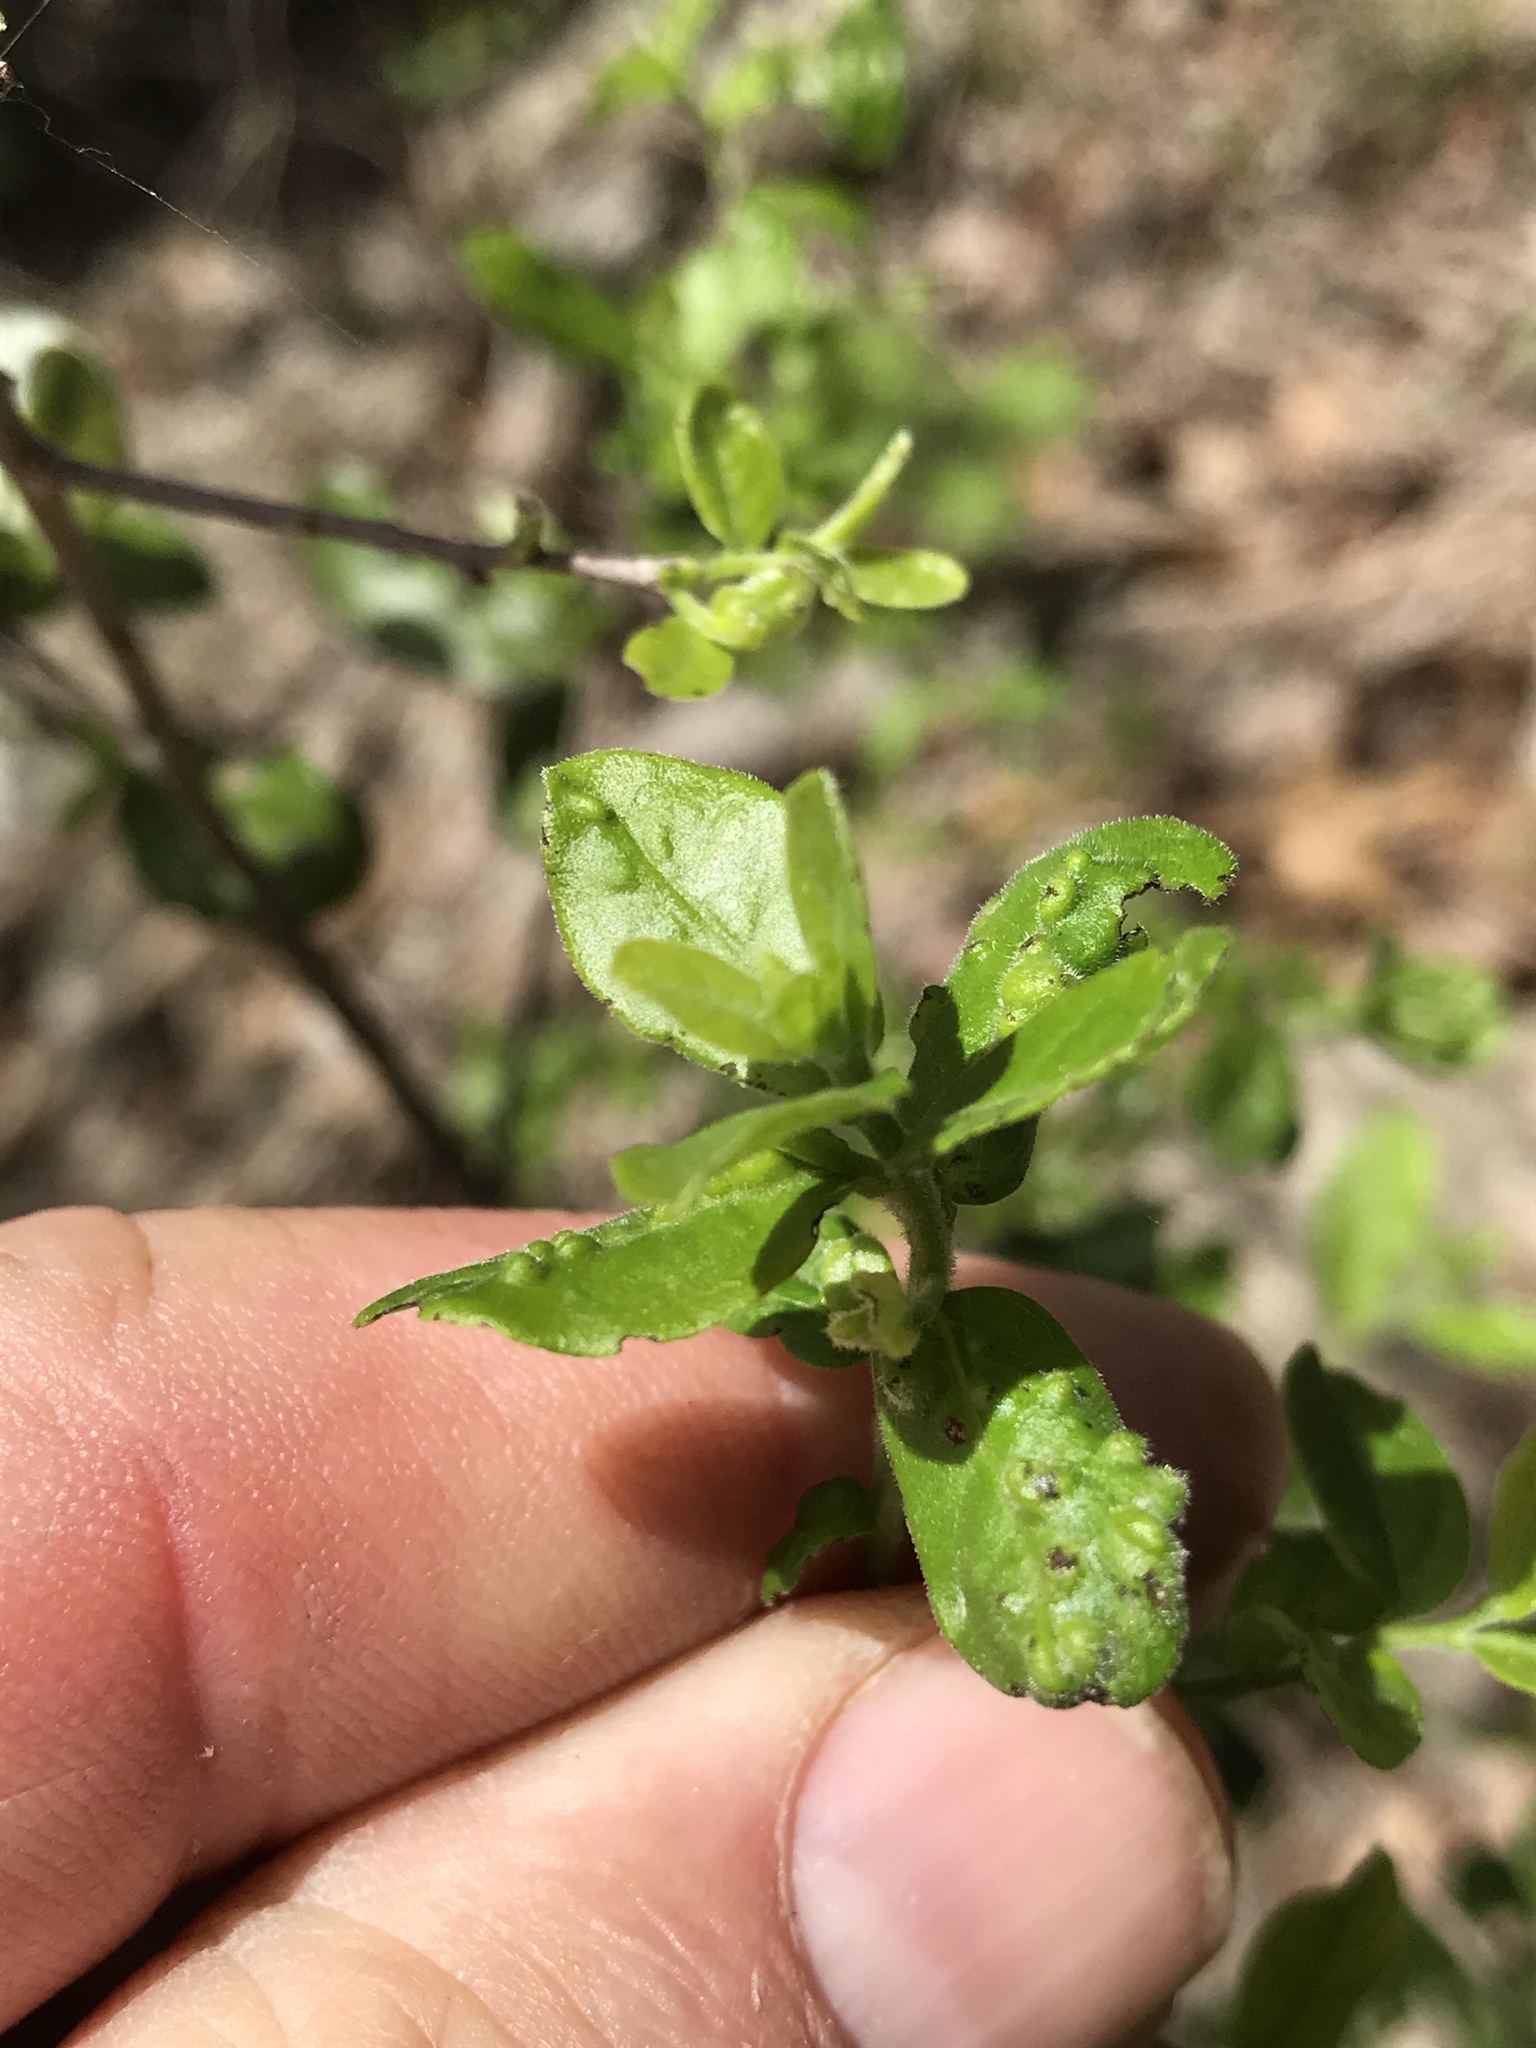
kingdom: Plantae
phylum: Tracheophyta
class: Magnoliopsida
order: Ericales
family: Ebenaceae
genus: Diospyros
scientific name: Diospyros texana
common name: Texas persimmon
